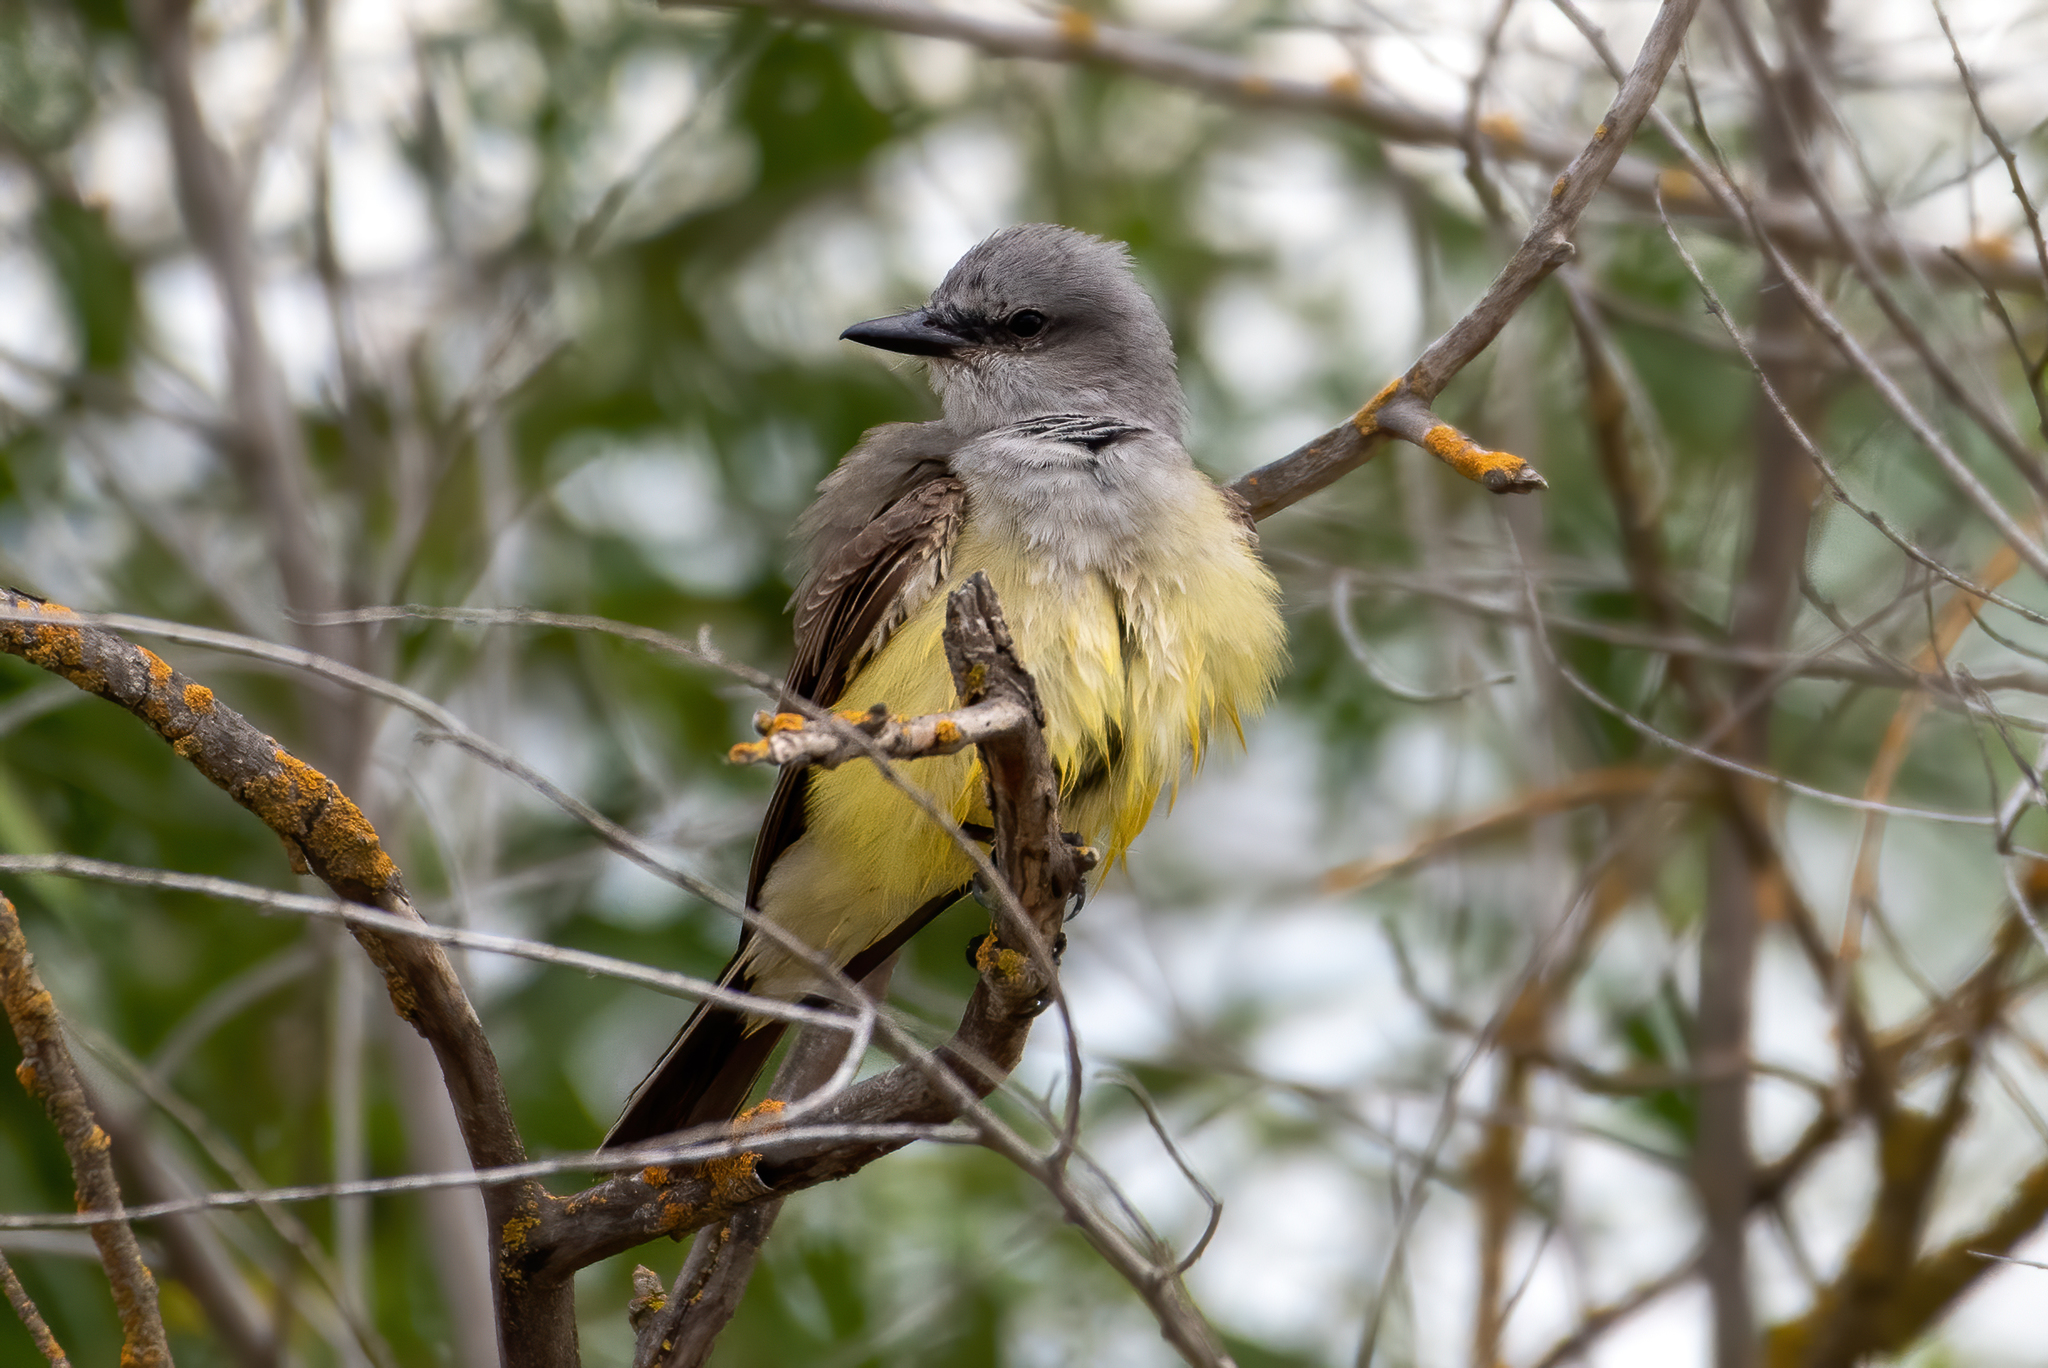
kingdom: Animalia
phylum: Chordata
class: Aves
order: Passeriformes
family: Tyrannidae
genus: Tyrannus
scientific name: Tyrannus verticalis
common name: Western kingbird
